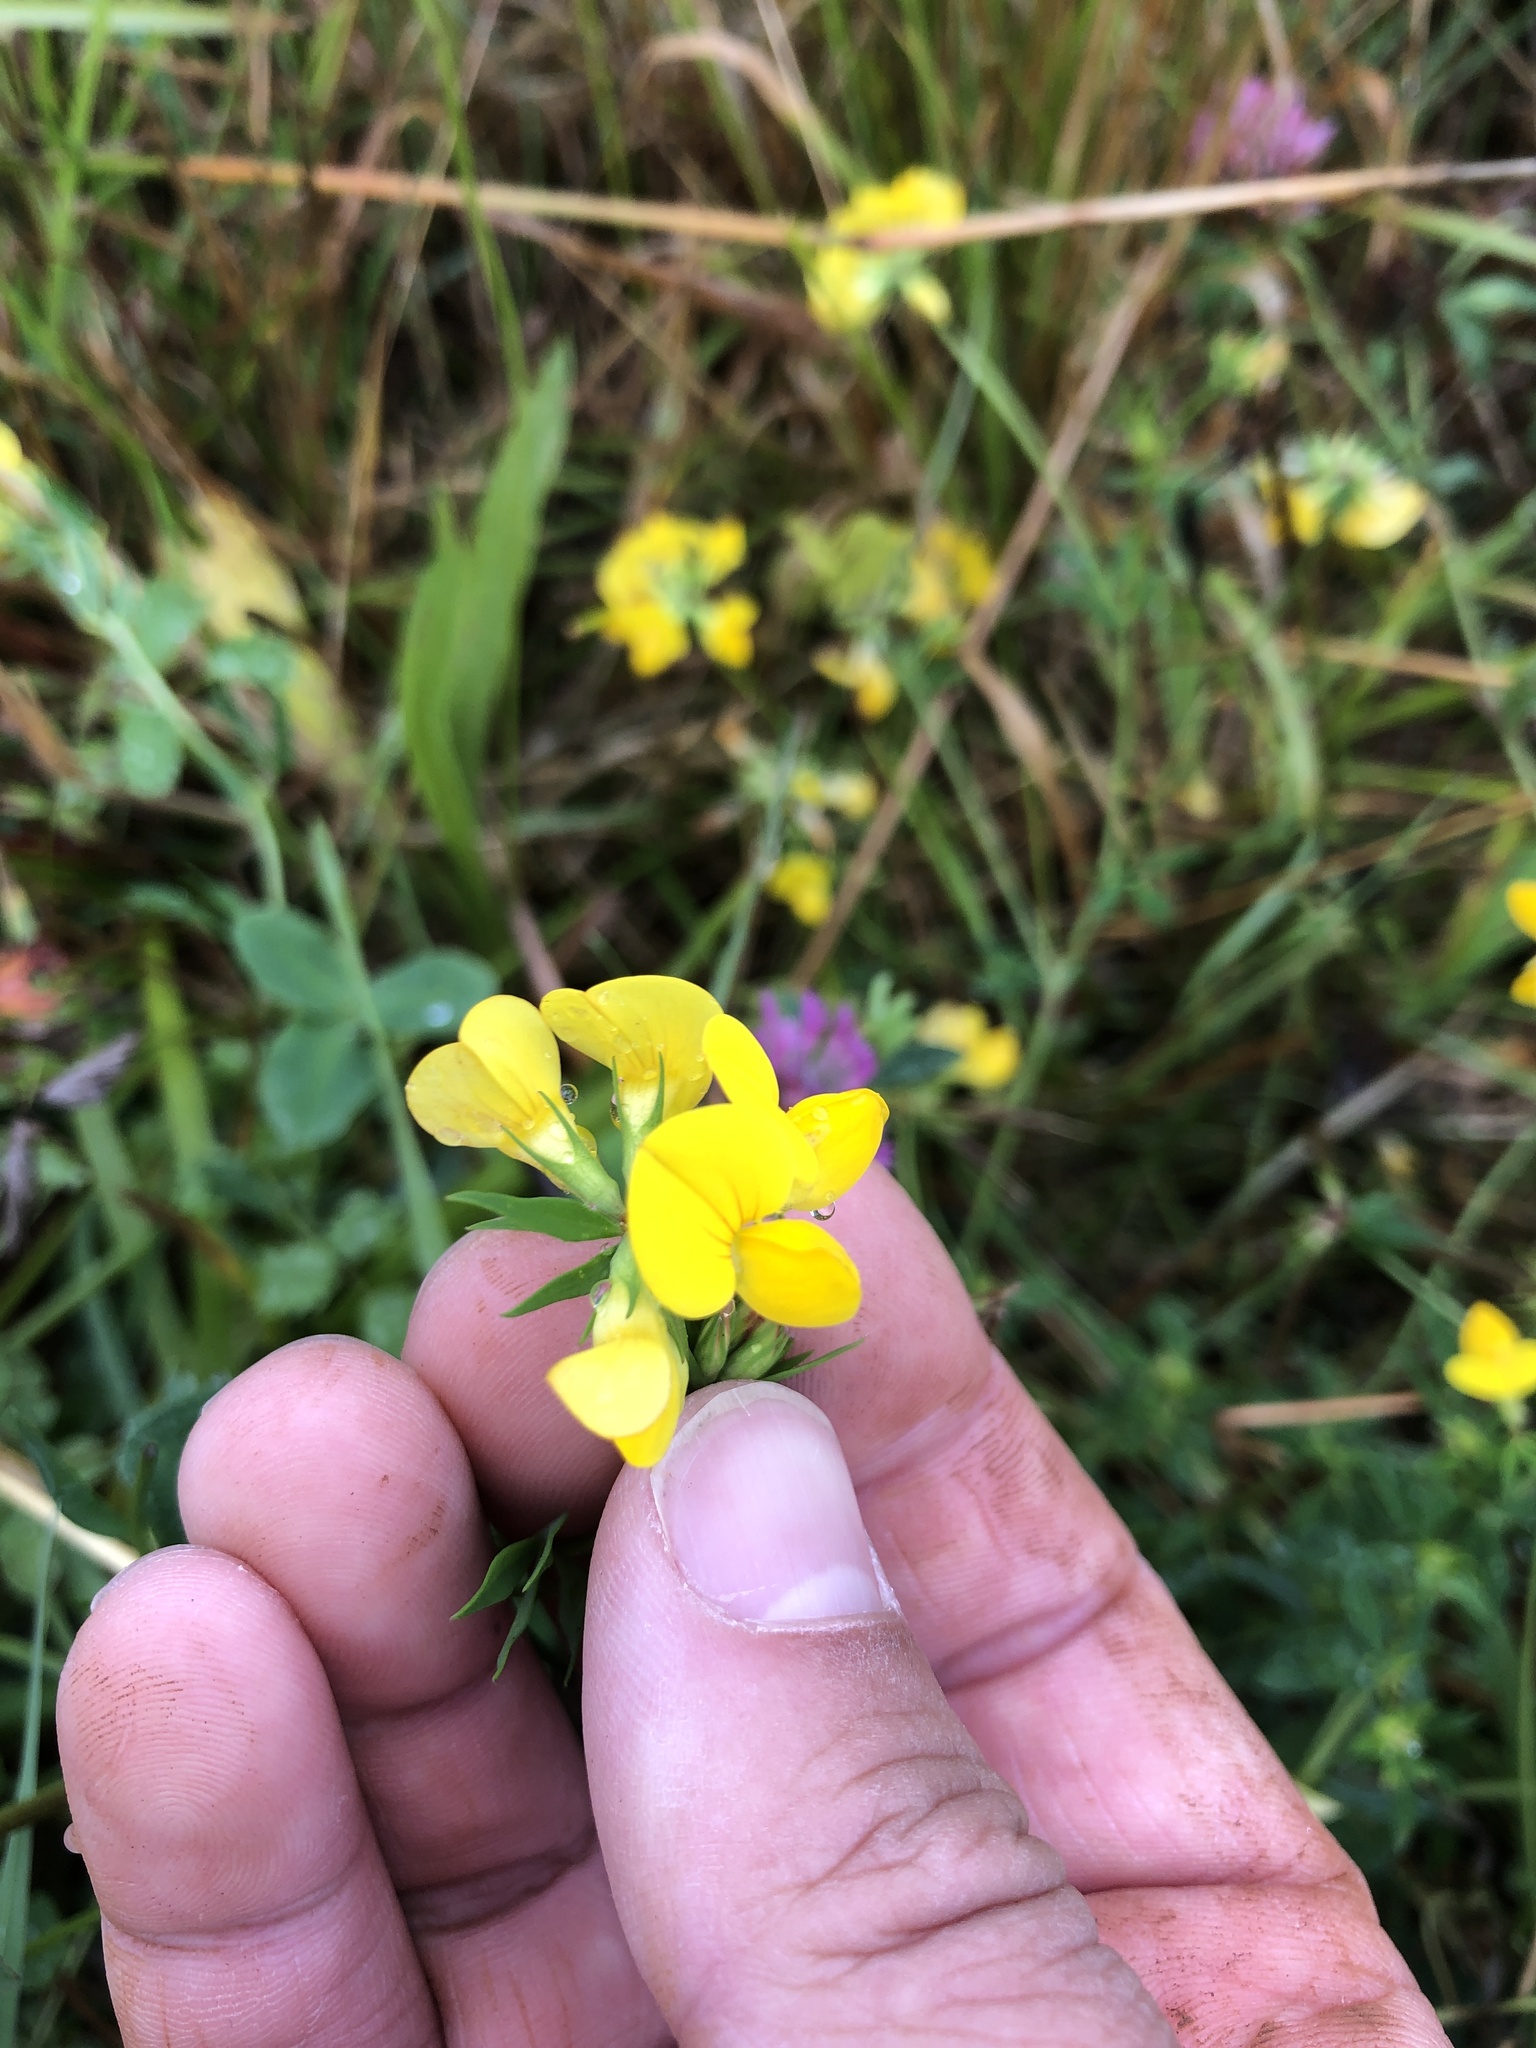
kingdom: Plantae
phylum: Tracheophyta
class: Magnoliopsida
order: Fabales
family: Fabaceae
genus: Lotus
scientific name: Lotus corniculatus
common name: Common bird's-foot-trefoil
